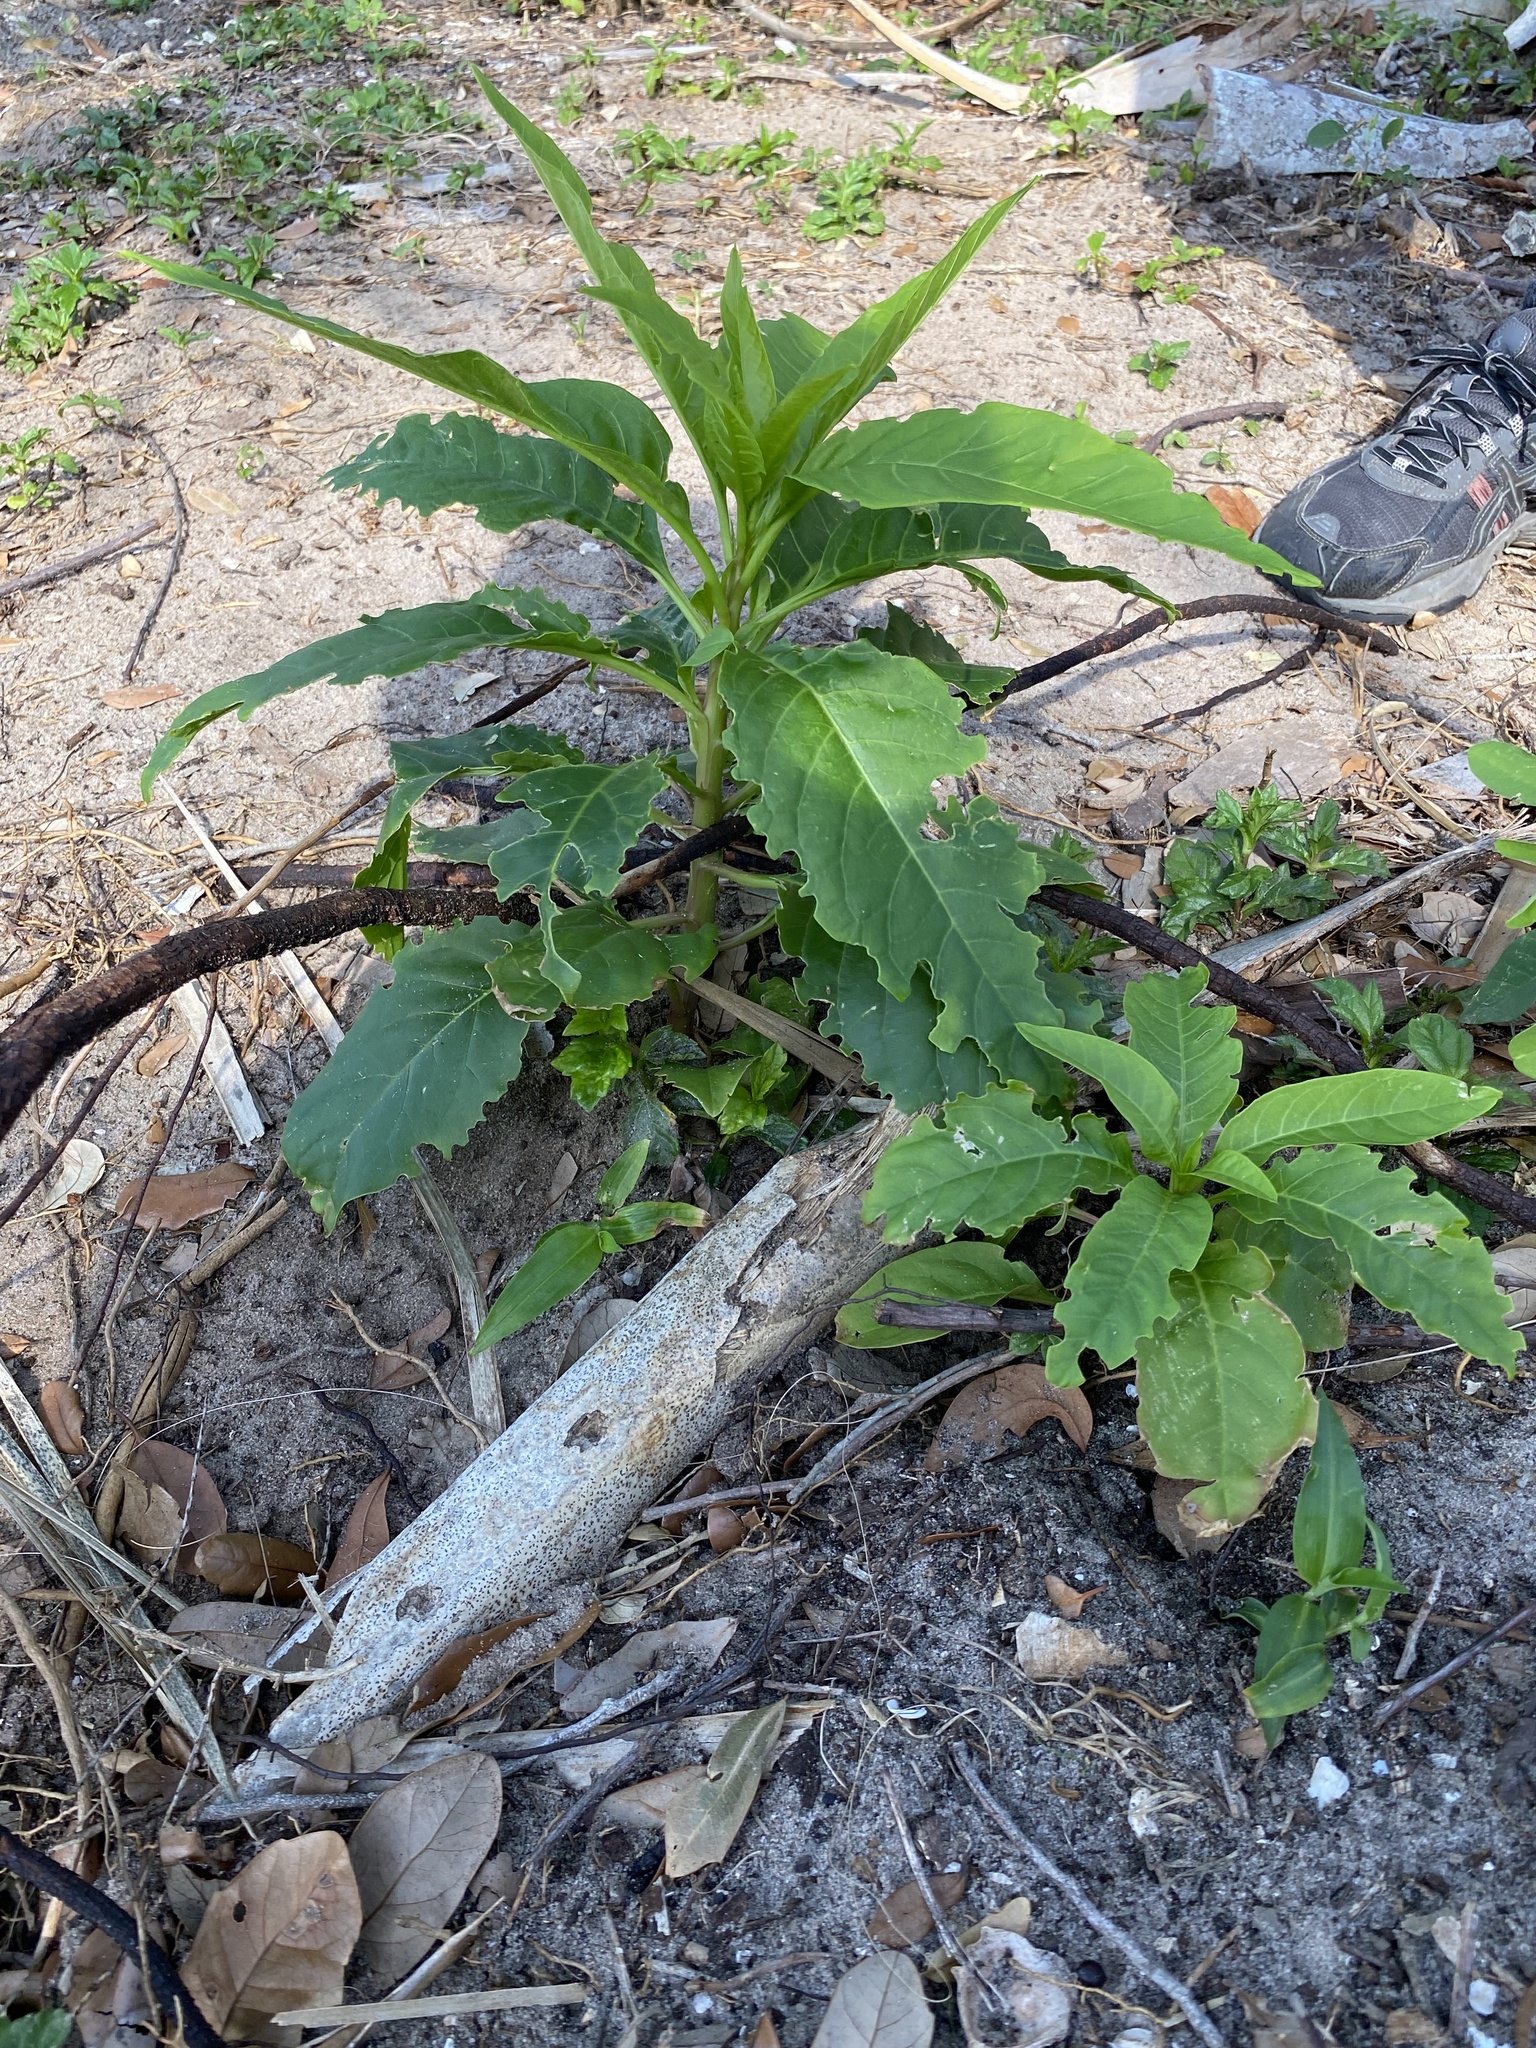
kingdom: Plantae
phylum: Tracheophyta
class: Magnoliopsida
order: Caryophyllales
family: Phytolaccaceae
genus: Phytolacca
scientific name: Phytolacca americana
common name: American pokeweed
